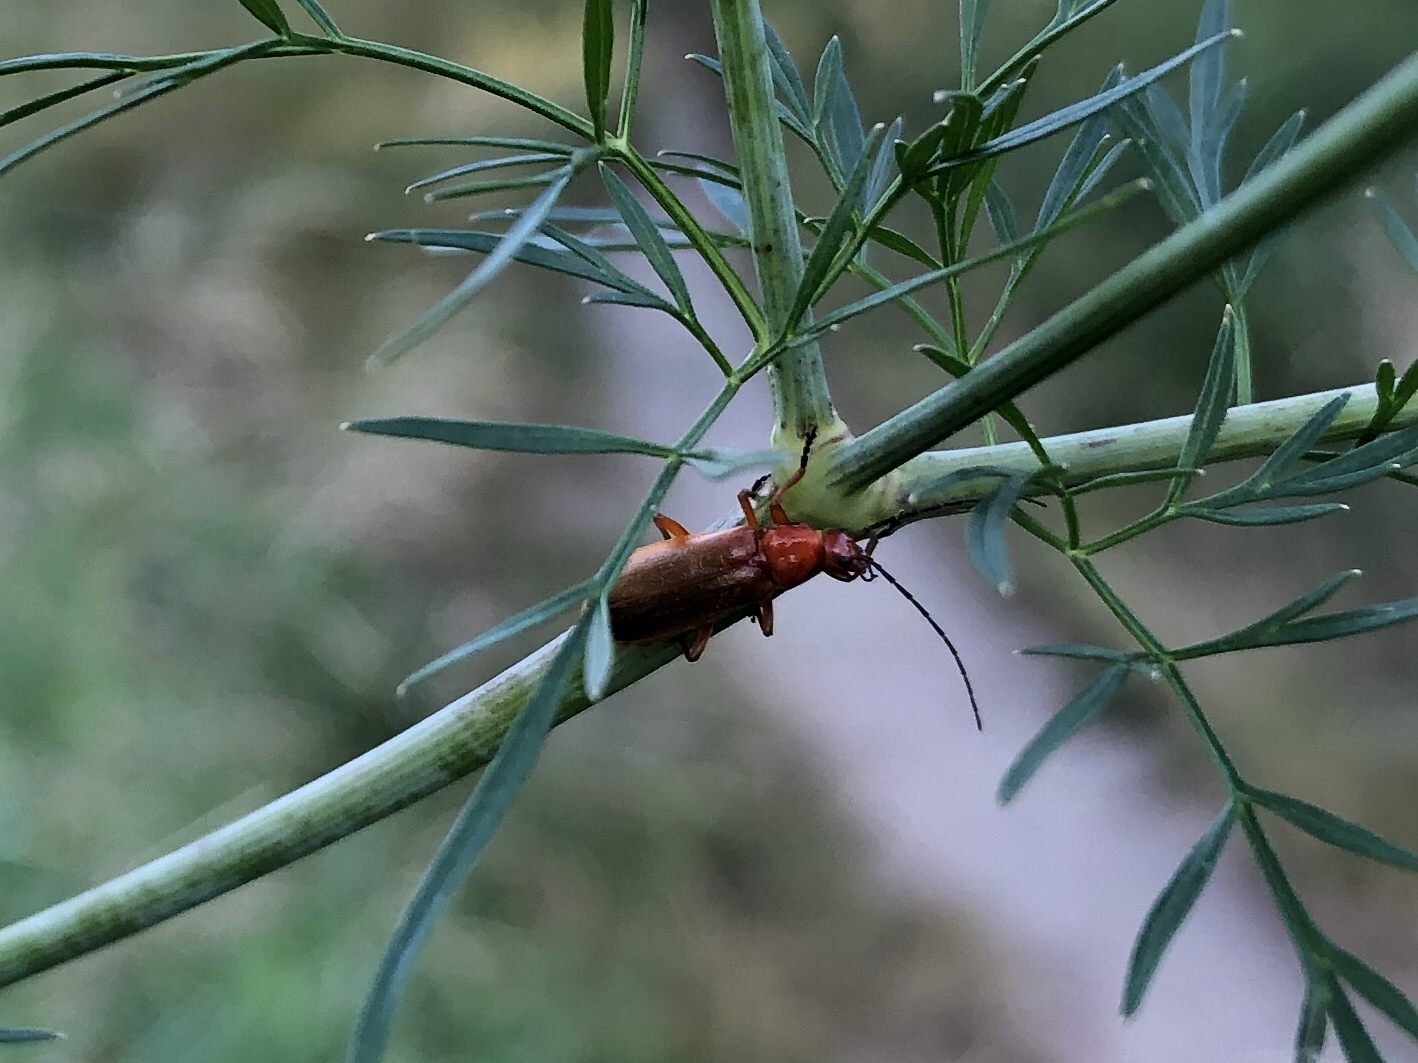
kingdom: Animalia
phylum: Arthropoda
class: Insecta
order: Coleoptera
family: Cantharidae
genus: Rhagonycha
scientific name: Rhagonycha fulva
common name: Common red soldier beetle
